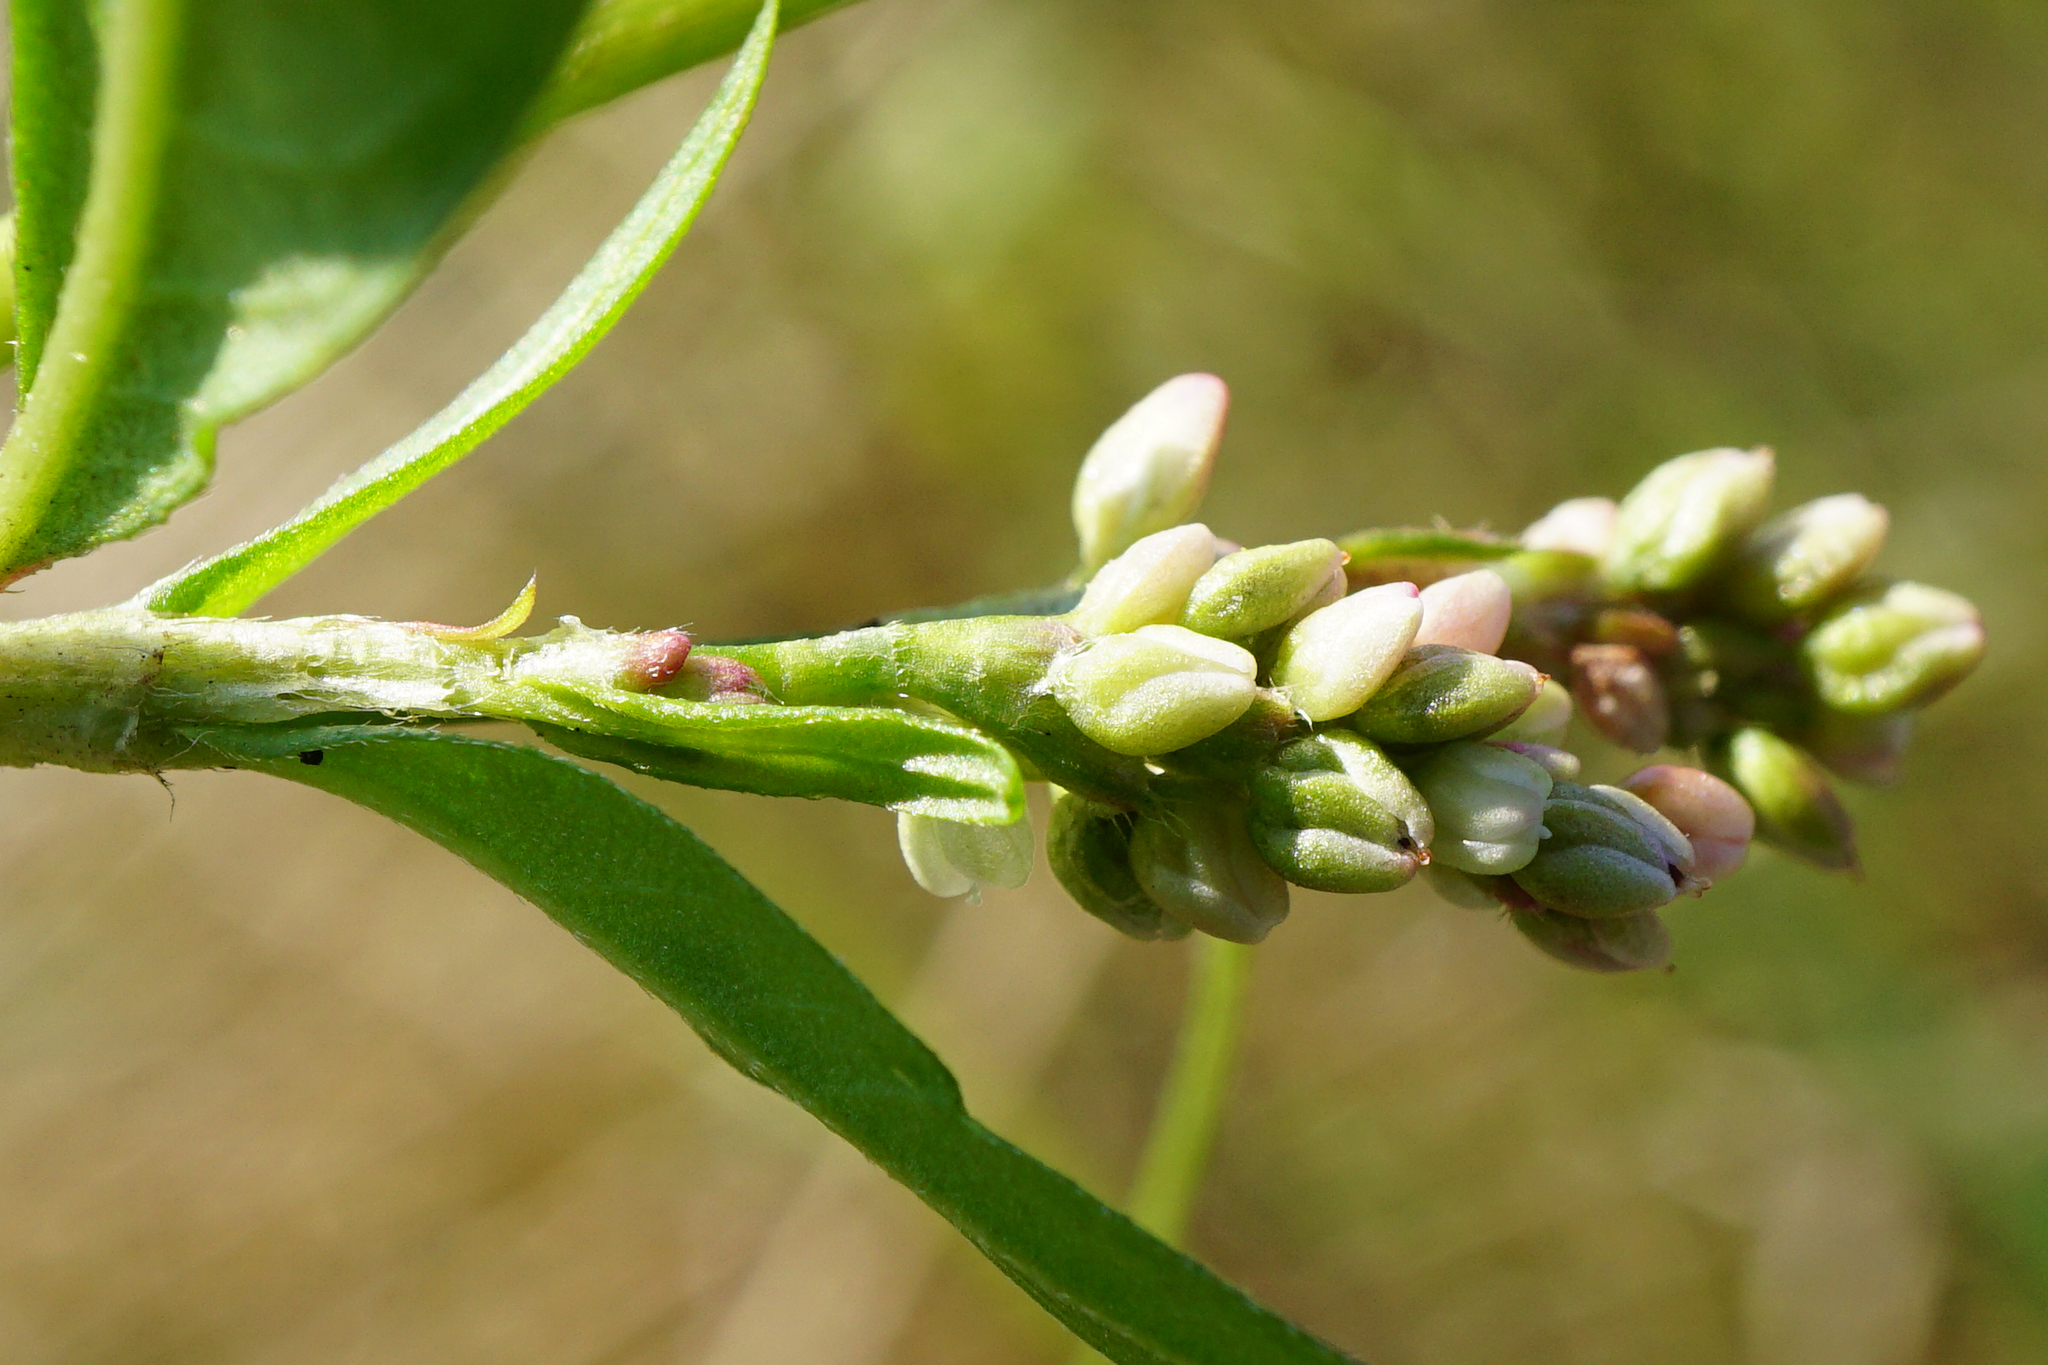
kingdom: Plantae
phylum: Tracheophyta
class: Magnoliopsida
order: Caryophyllales
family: Polygonaceae
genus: Persicaria
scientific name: Persicaria maculosa
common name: Redshank
